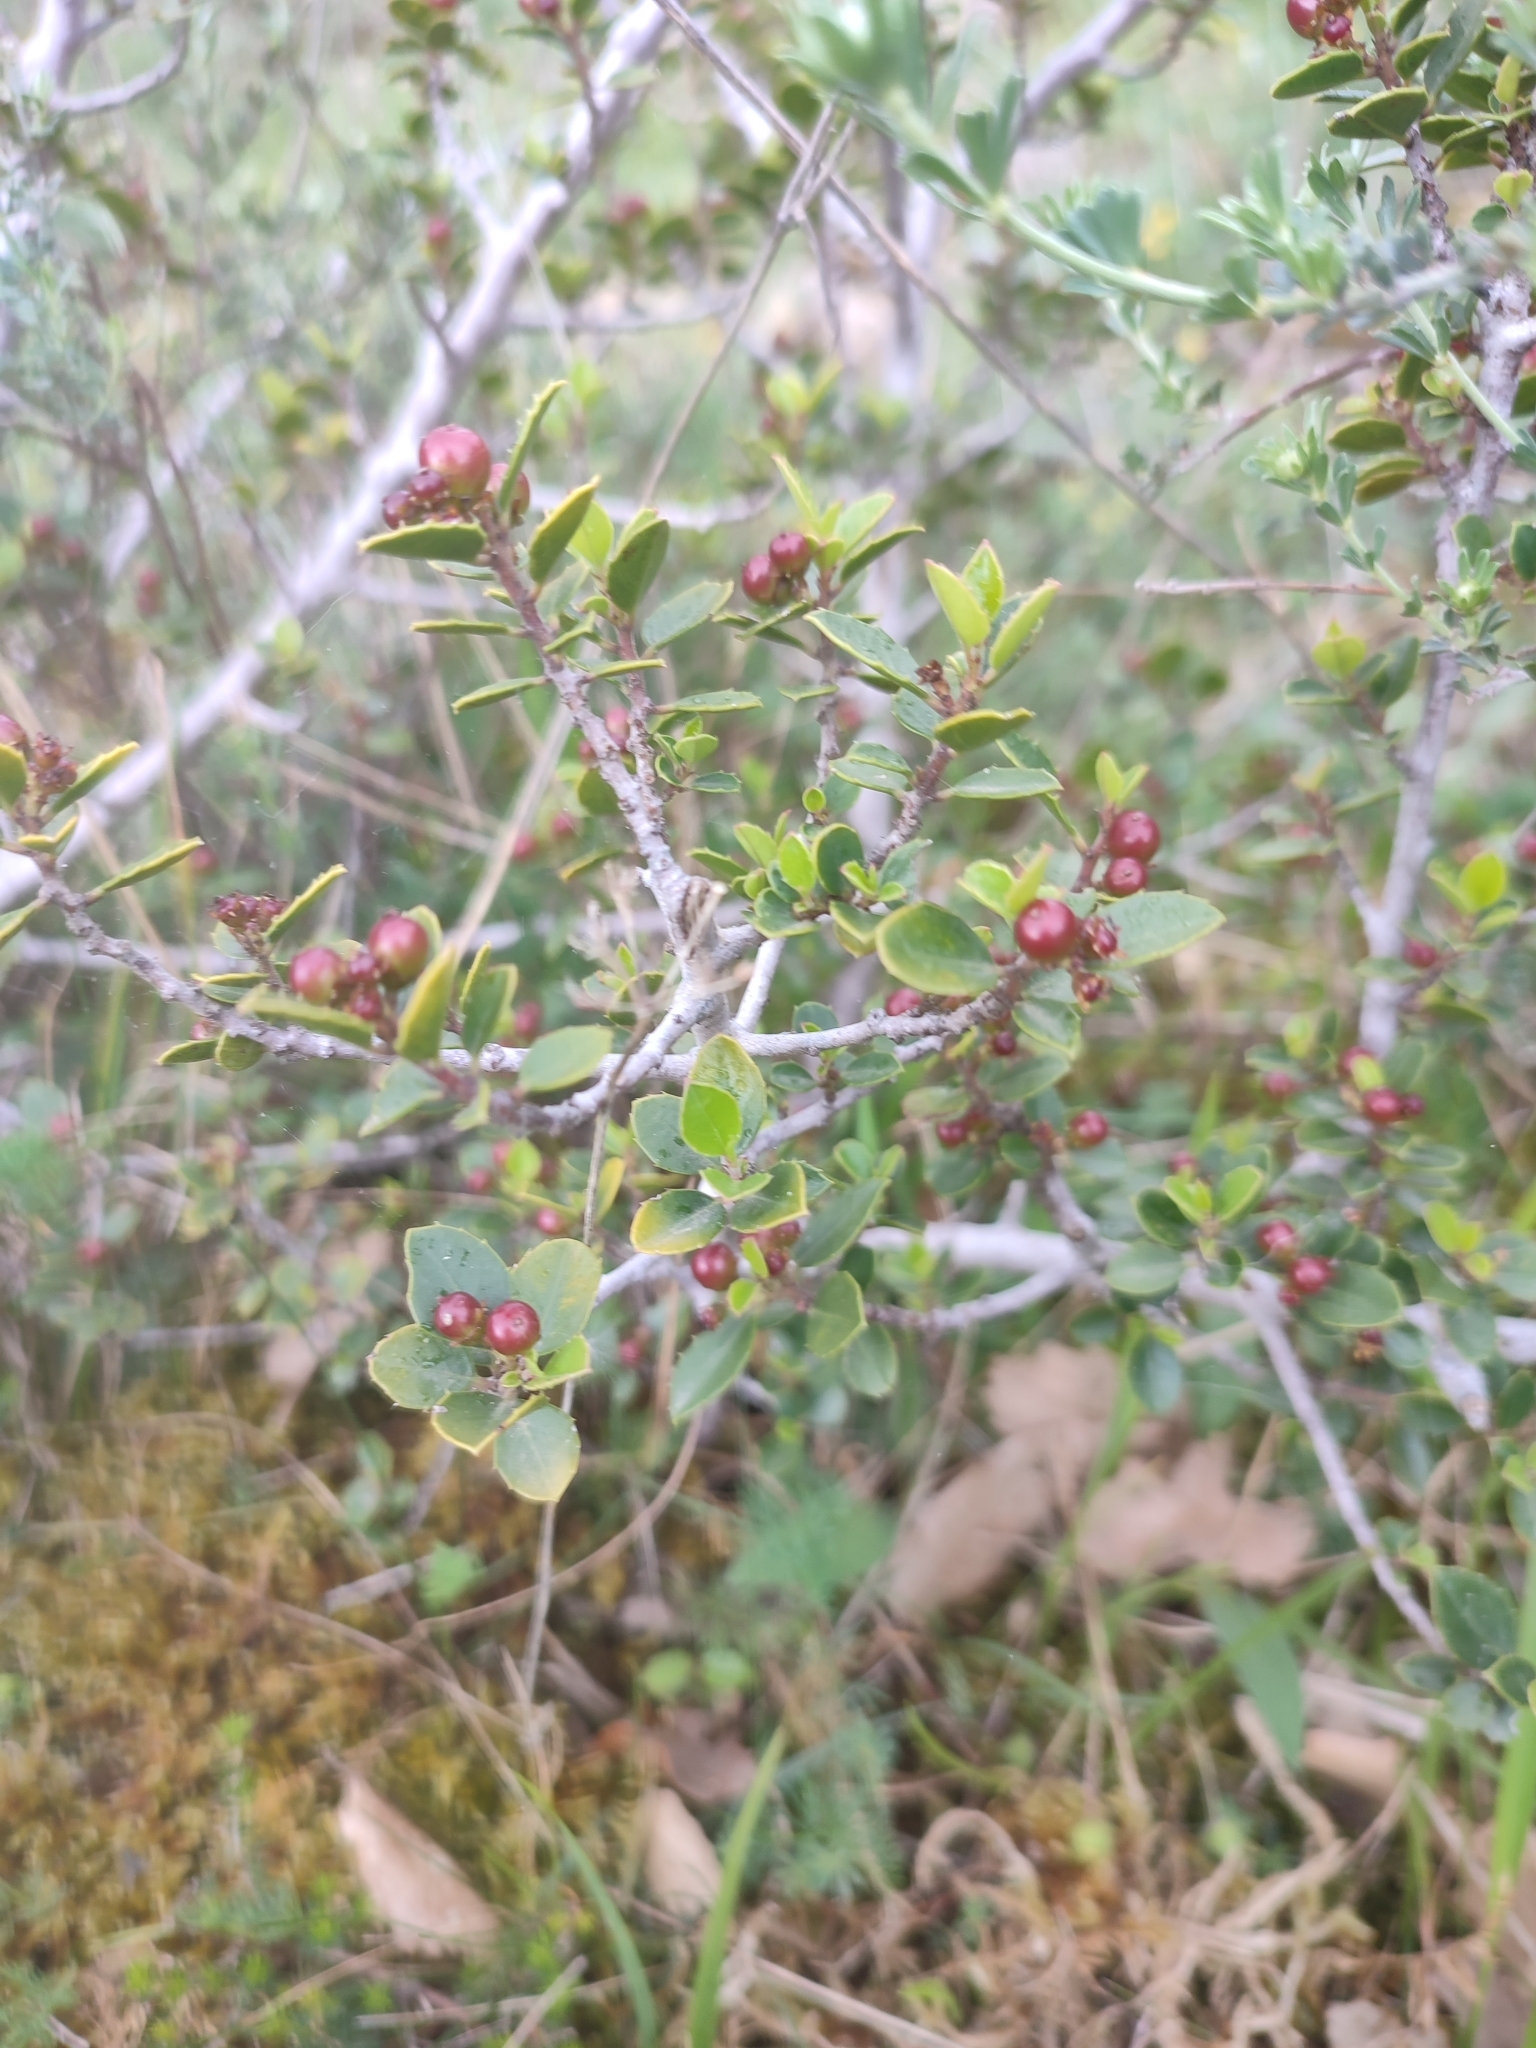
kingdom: Plantae
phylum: Tracheophyta
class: Magnoliopsida
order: Rosales
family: Rhamnaceae
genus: Rhamnus
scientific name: Rhamnus alaternus
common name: Mediterranean buckthorn
